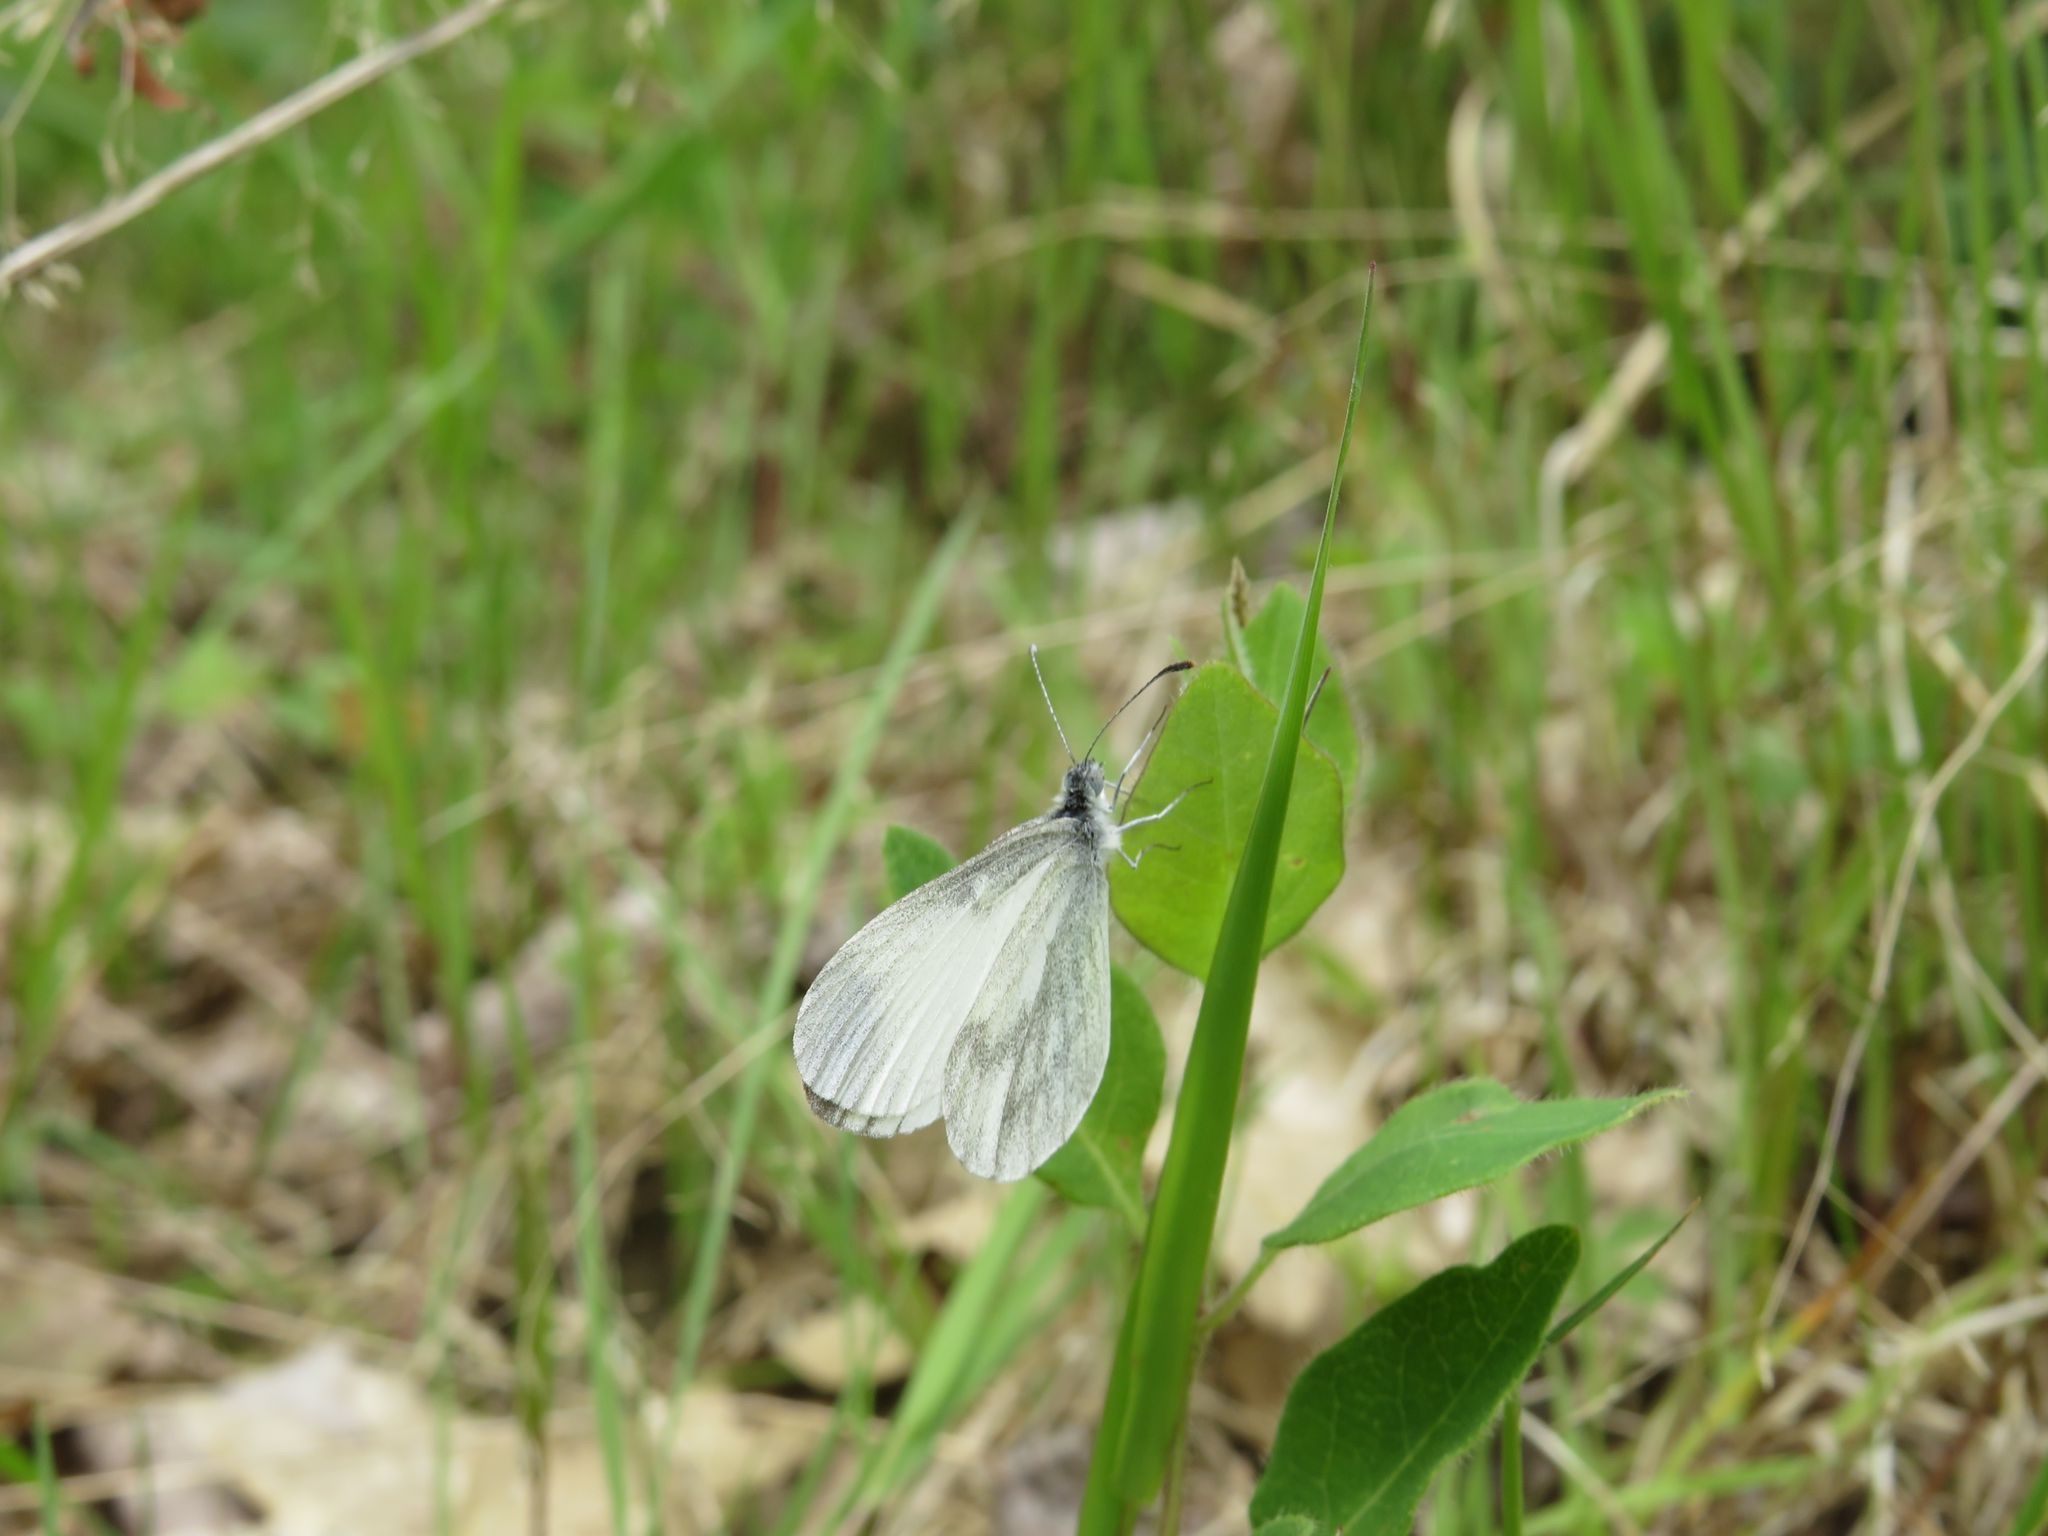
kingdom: Animalia
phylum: Arthropoda
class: Insecta
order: Lepidoptera
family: Pieridae
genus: Leptidea
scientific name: Leptidea sinapis
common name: Wood white
